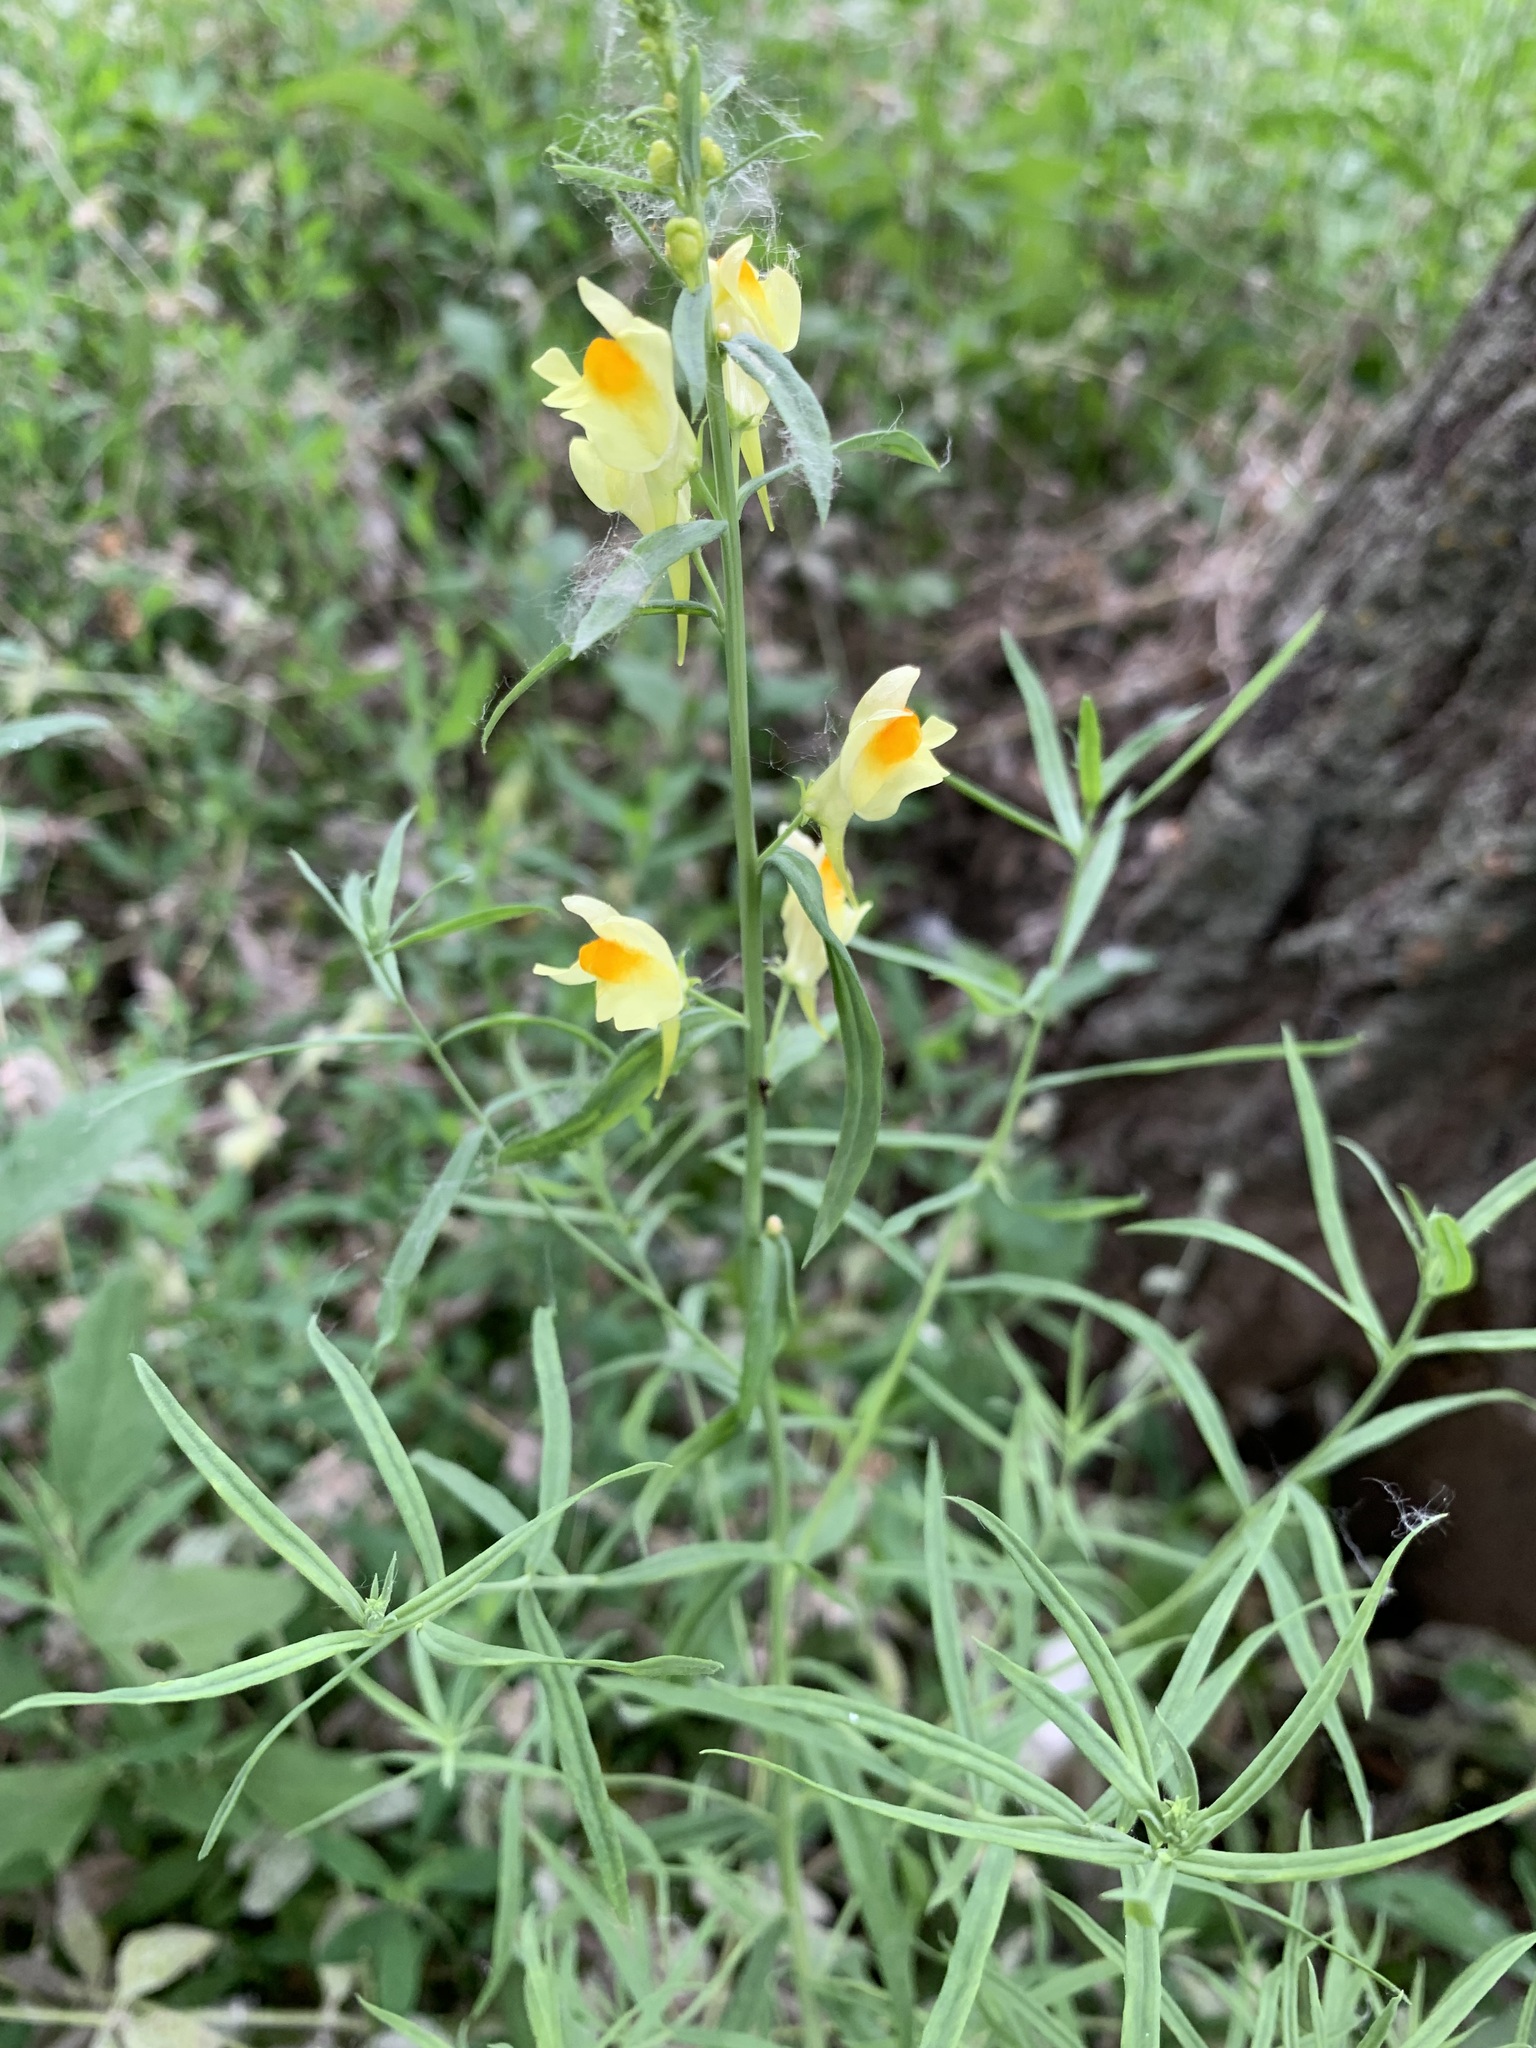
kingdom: Plantae
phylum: Tracheophyta
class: Magnoliopsida
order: Lamiales
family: Plantaginaceae
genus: Linaria
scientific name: Linaria vulgaris
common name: Butter and eggs
